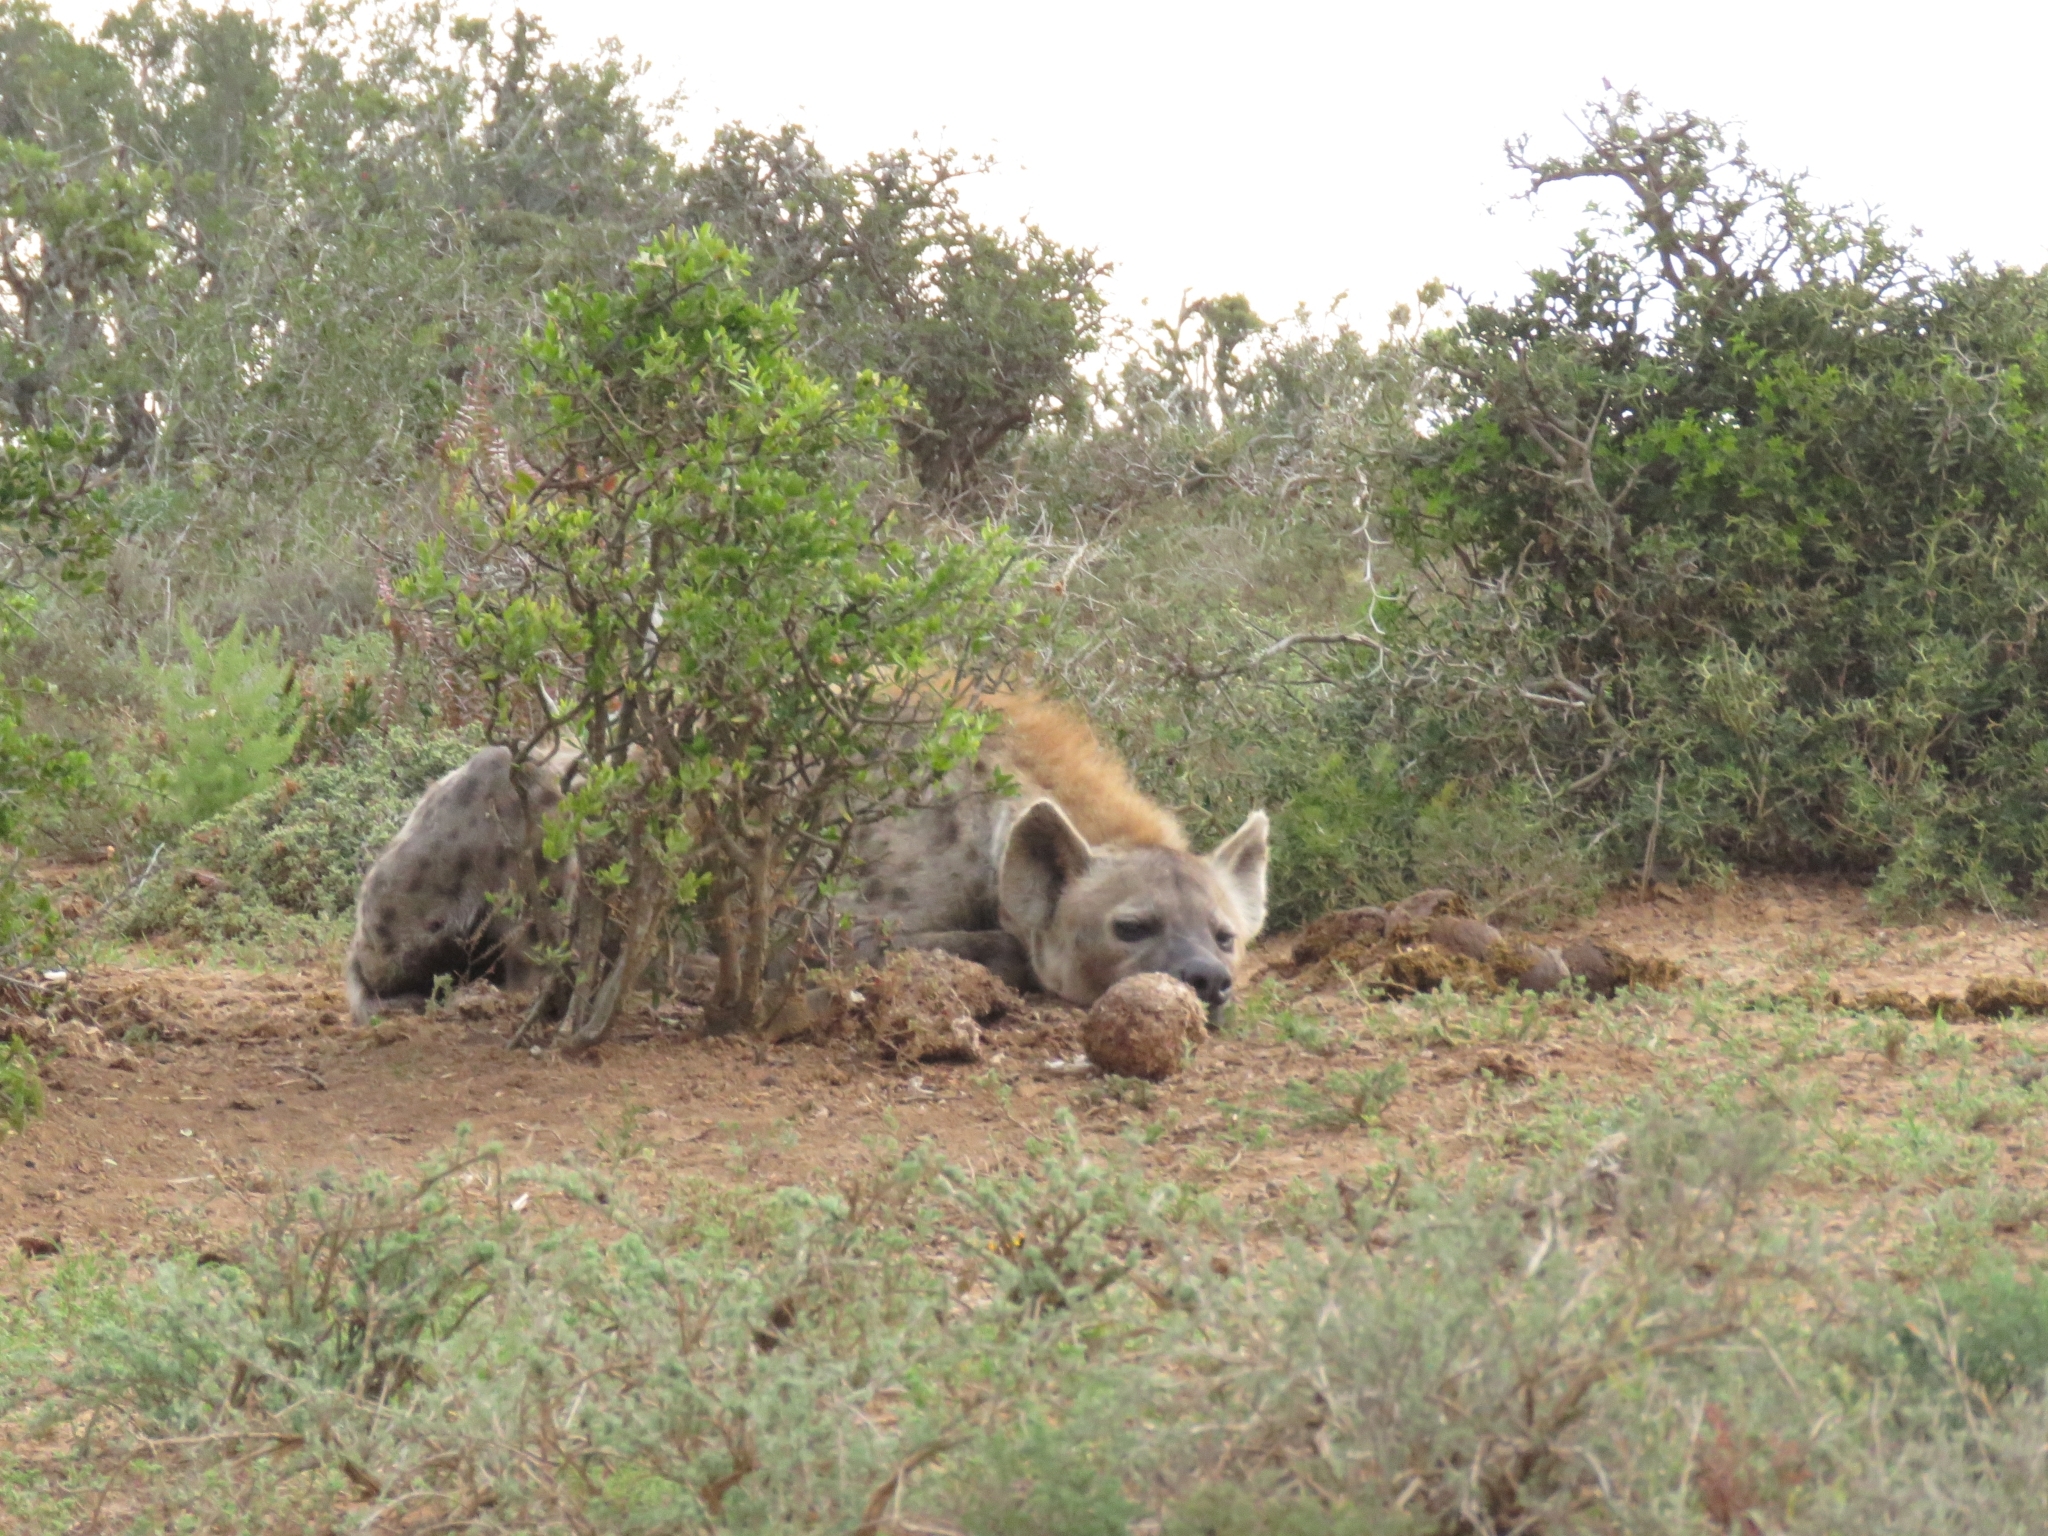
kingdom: Animalia
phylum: Chordata
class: Mammalia
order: Carnivora
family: Hyaenidae
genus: Crocuta
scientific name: Crocuta crocuta
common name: Spotted hyaena
